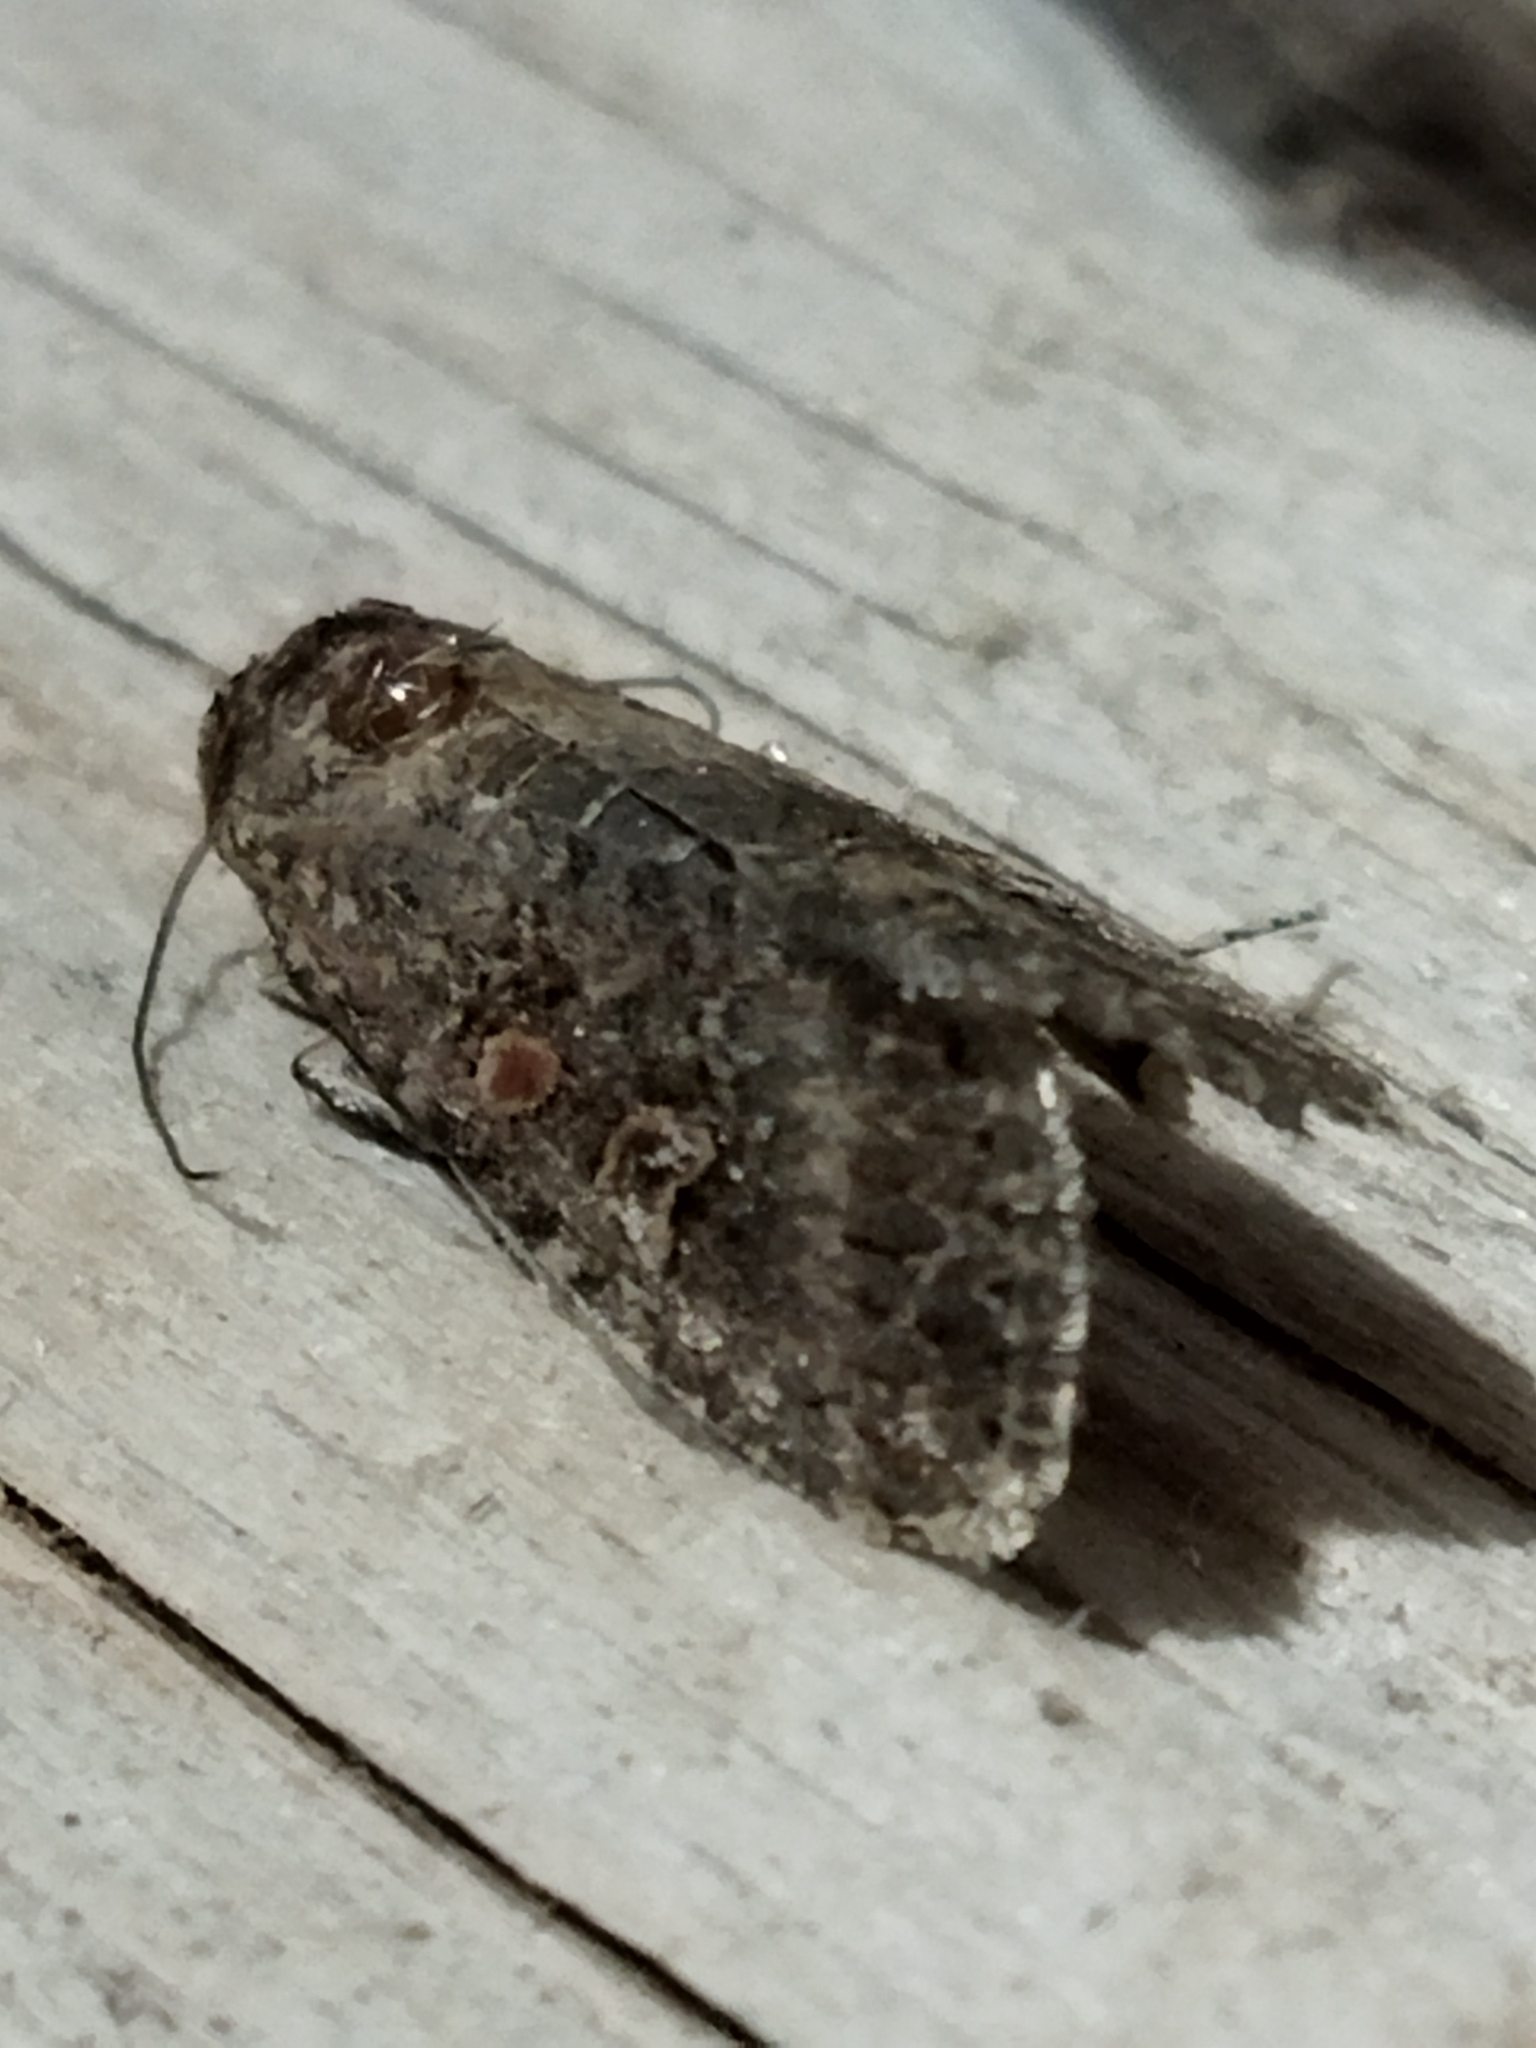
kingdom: Animalia
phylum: Arthropoda
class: Insecta
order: Lepidoptera
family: Noctuidae
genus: Spodoptera
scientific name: Spodoptera exigua
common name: Beet armyworm
